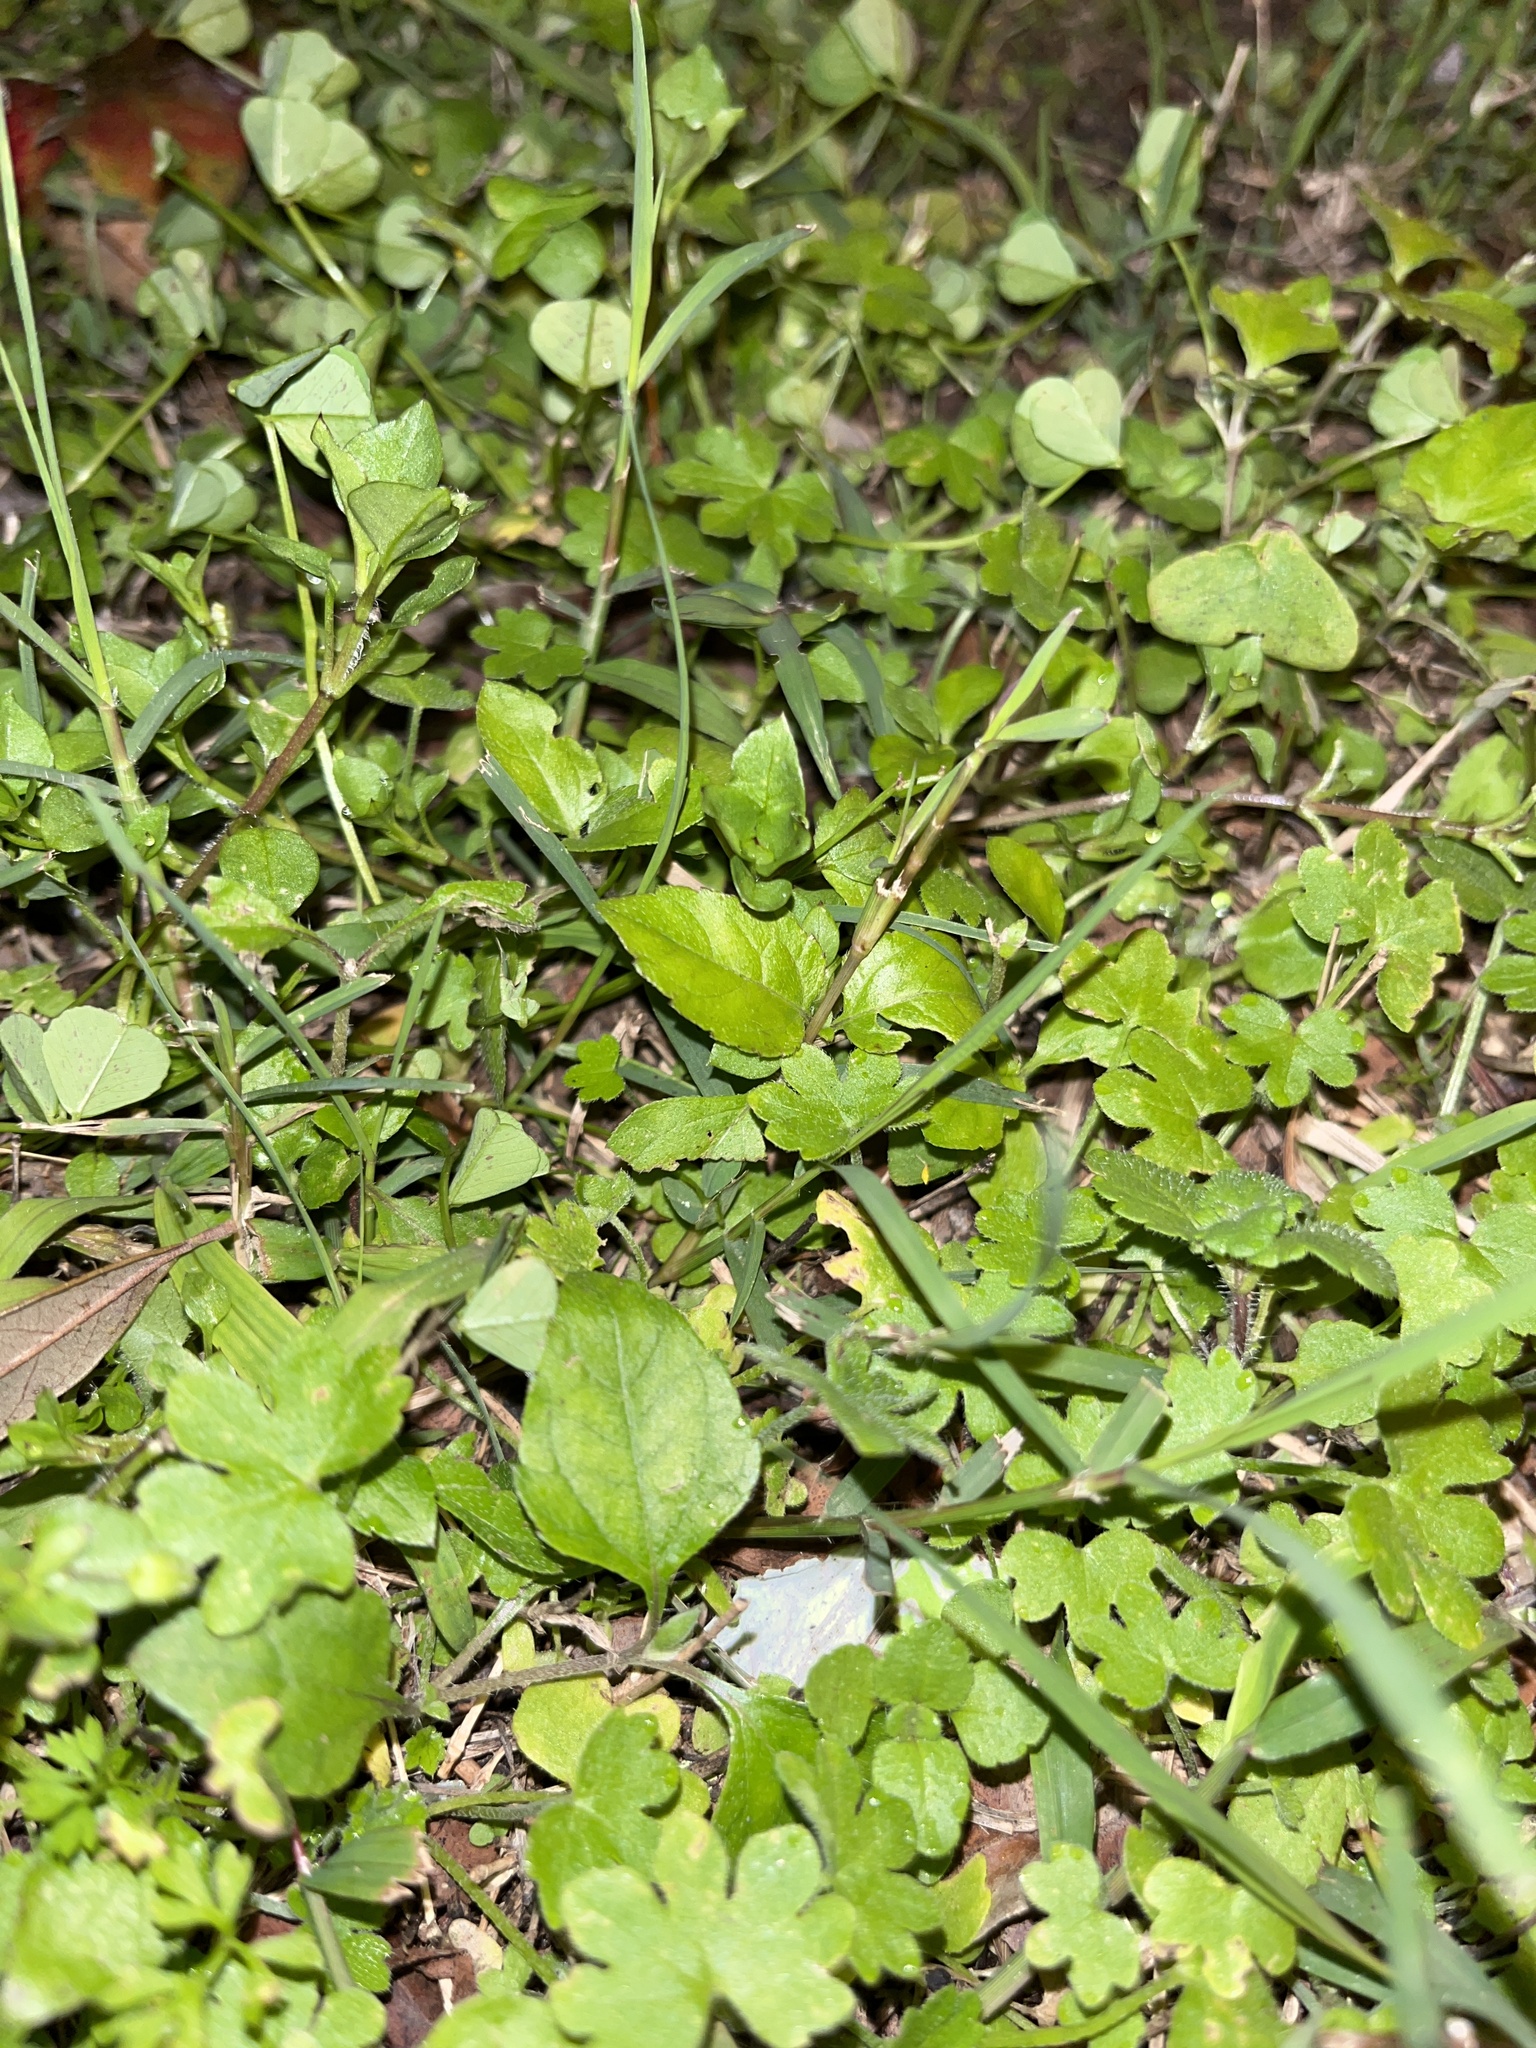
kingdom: Plantae
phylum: Tracheophyta
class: Magnoliopsida
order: Asterales
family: Asteraceae
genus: Calyptocarpus
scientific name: Calyptocarpus vialis
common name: Straggler daisy
